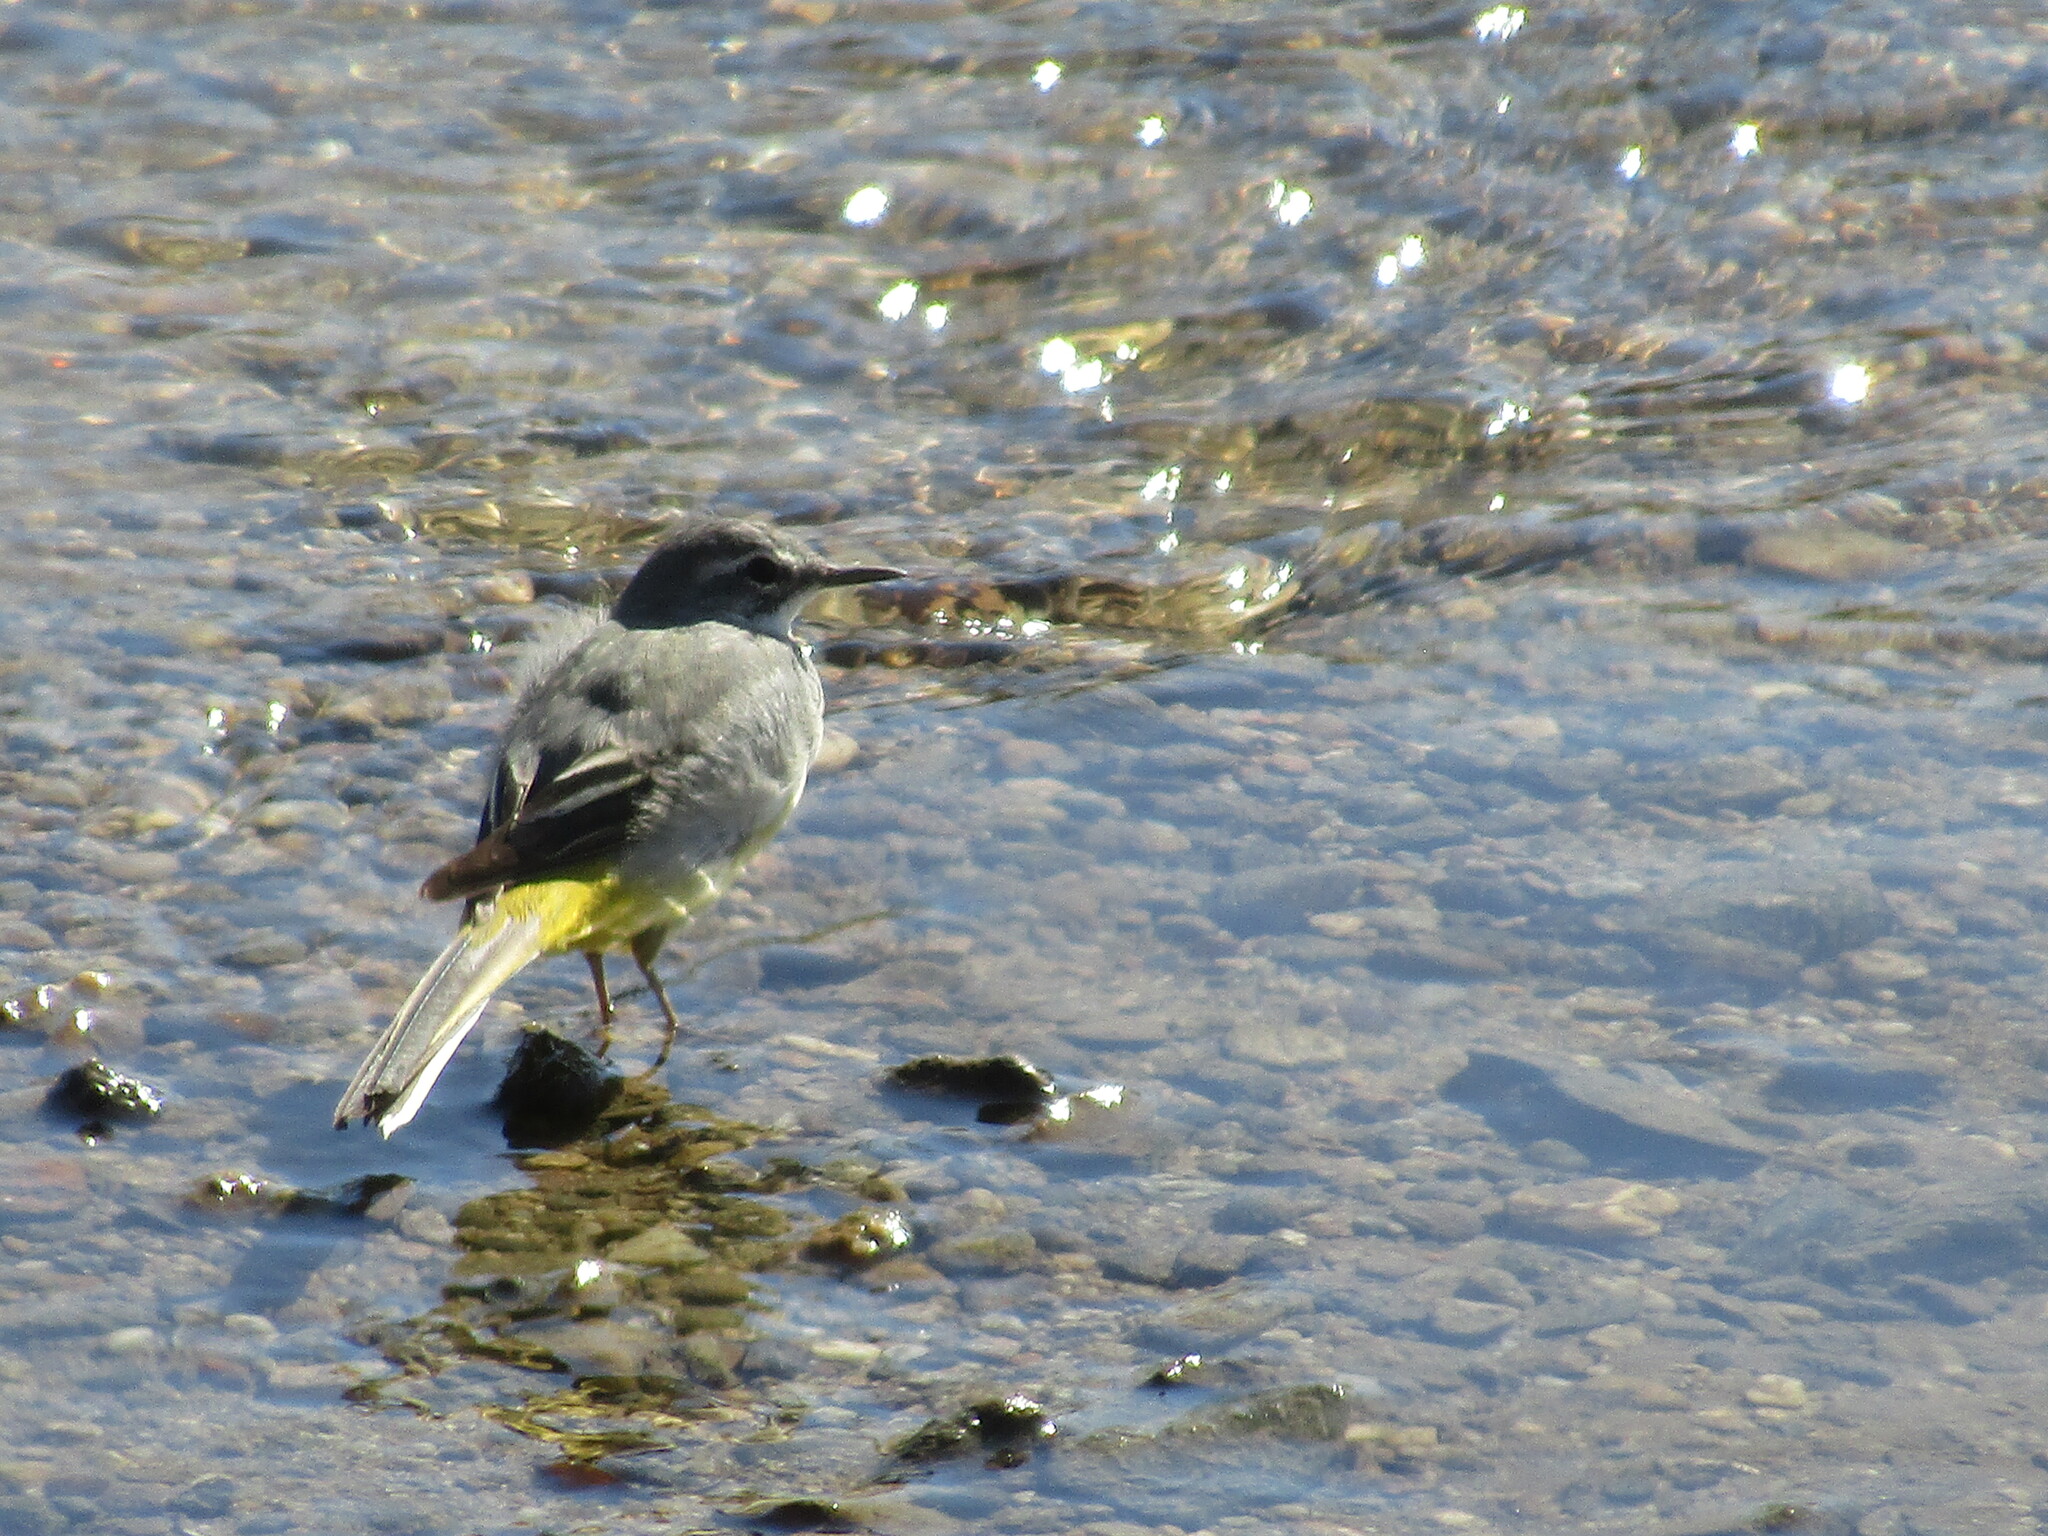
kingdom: Animalia
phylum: Chordata
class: Aves
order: Passeriformes
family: Motacillidae
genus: Motacilla
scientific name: Motacilla cinerea
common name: Grey wagtail
